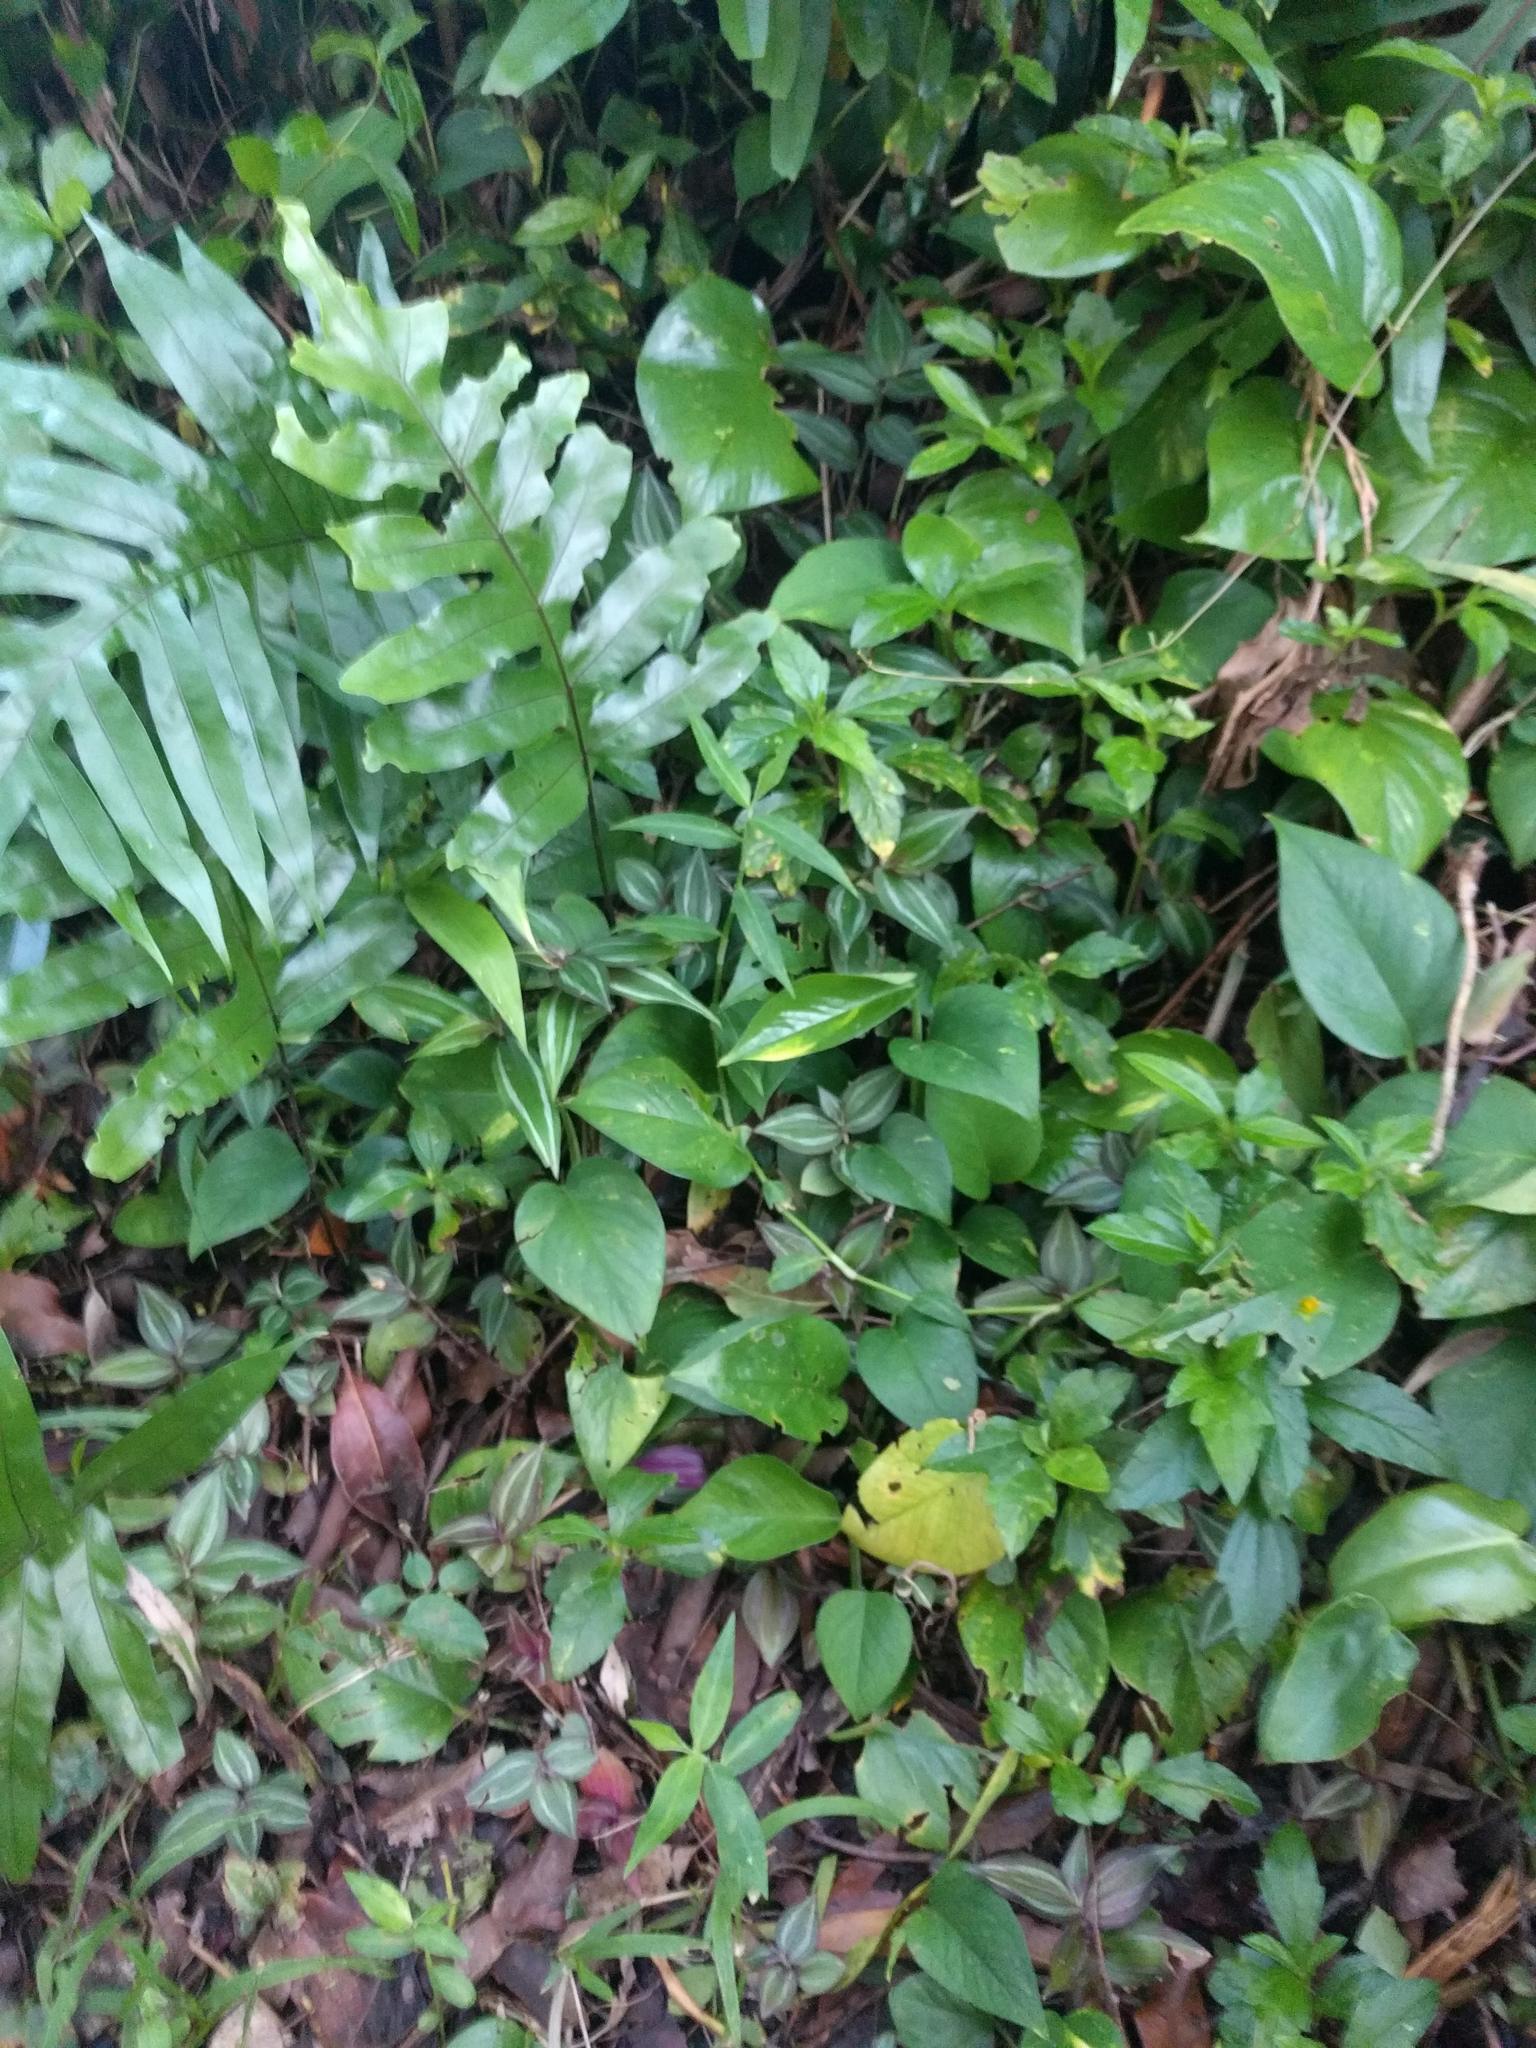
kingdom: Plantae
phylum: Tracheophyta
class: Liliopsida
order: Commelinales
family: Commelinaceae
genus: Tradescantia
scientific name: Tradescantia zebrina
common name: Inchplant
